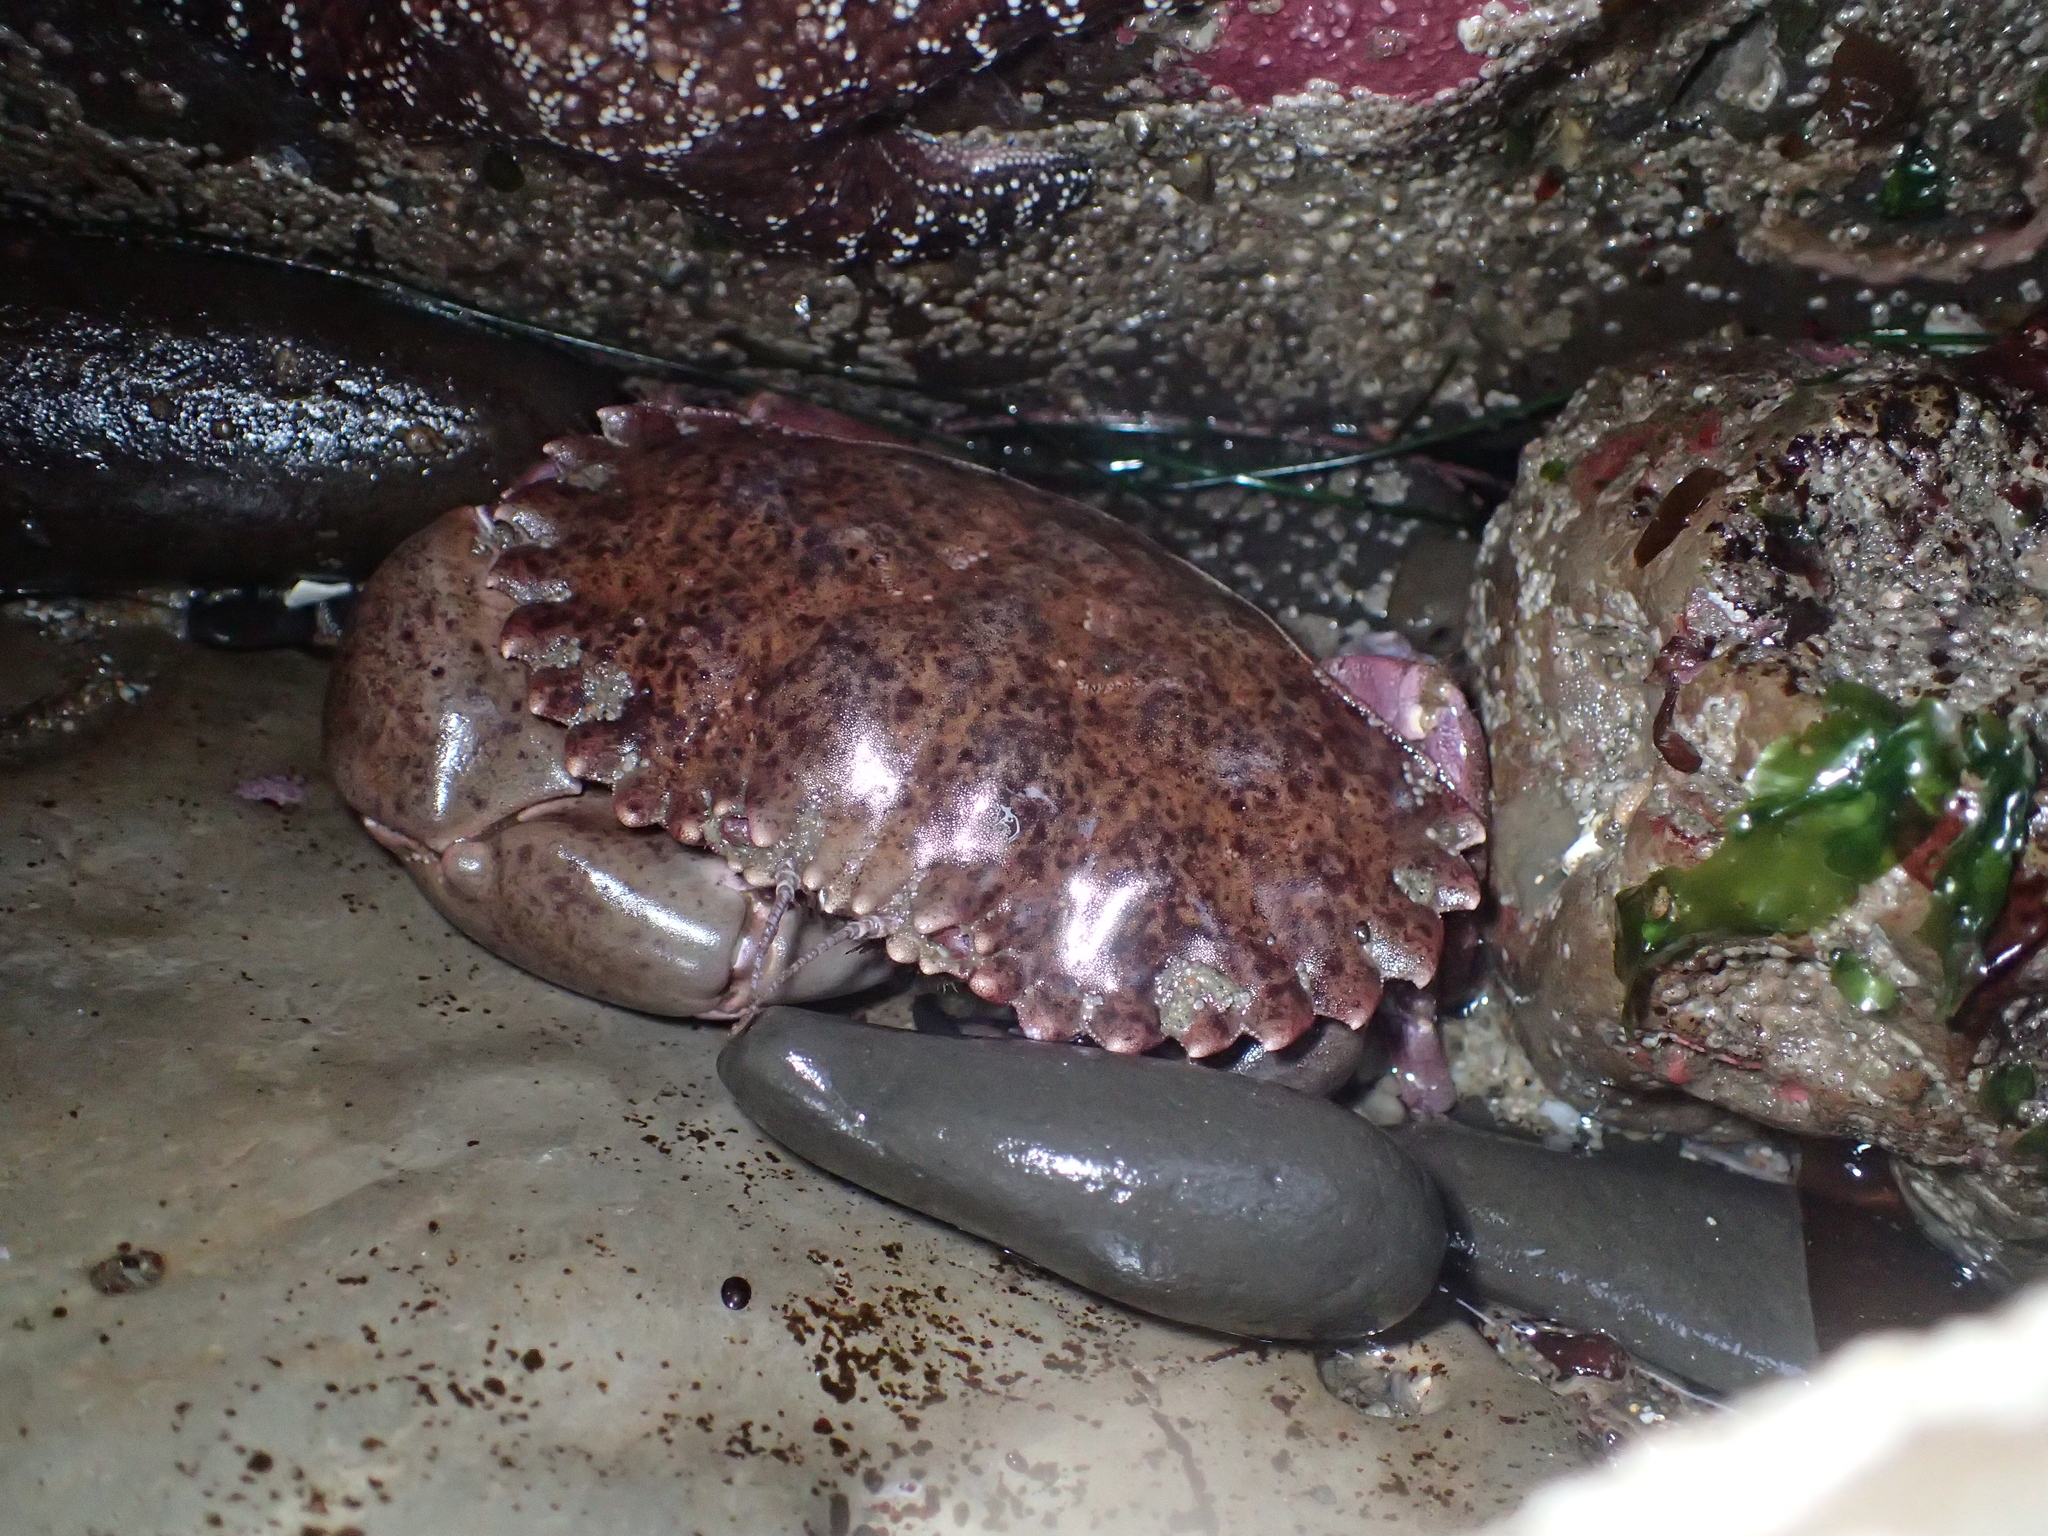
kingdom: Animalia
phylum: Arthropoda
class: Malacostraca
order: Decapoda
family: Cancridae
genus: Romaleon
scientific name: Romaleon antennarium
